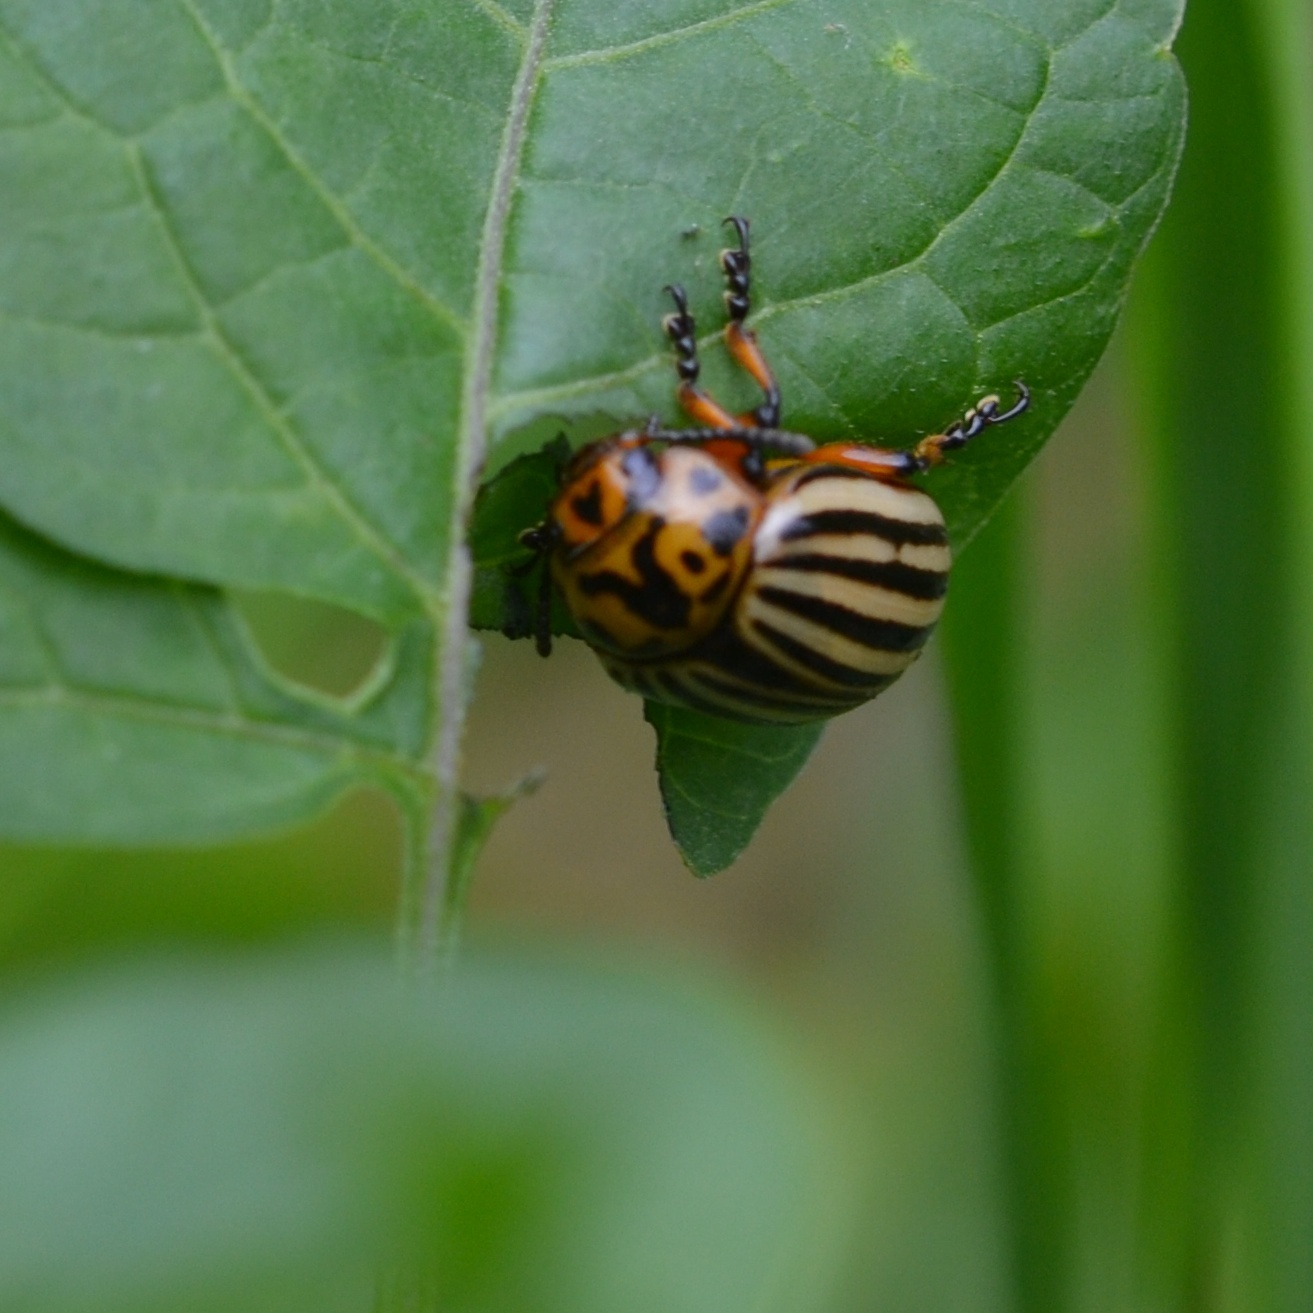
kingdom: Animalia
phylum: Arthropoda
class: Insecta
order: Coleoptera
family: Chrysomelidae
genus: Leptinotarsa
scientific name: Leptinotarsa decemlineata
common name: Colorado potato beetle
